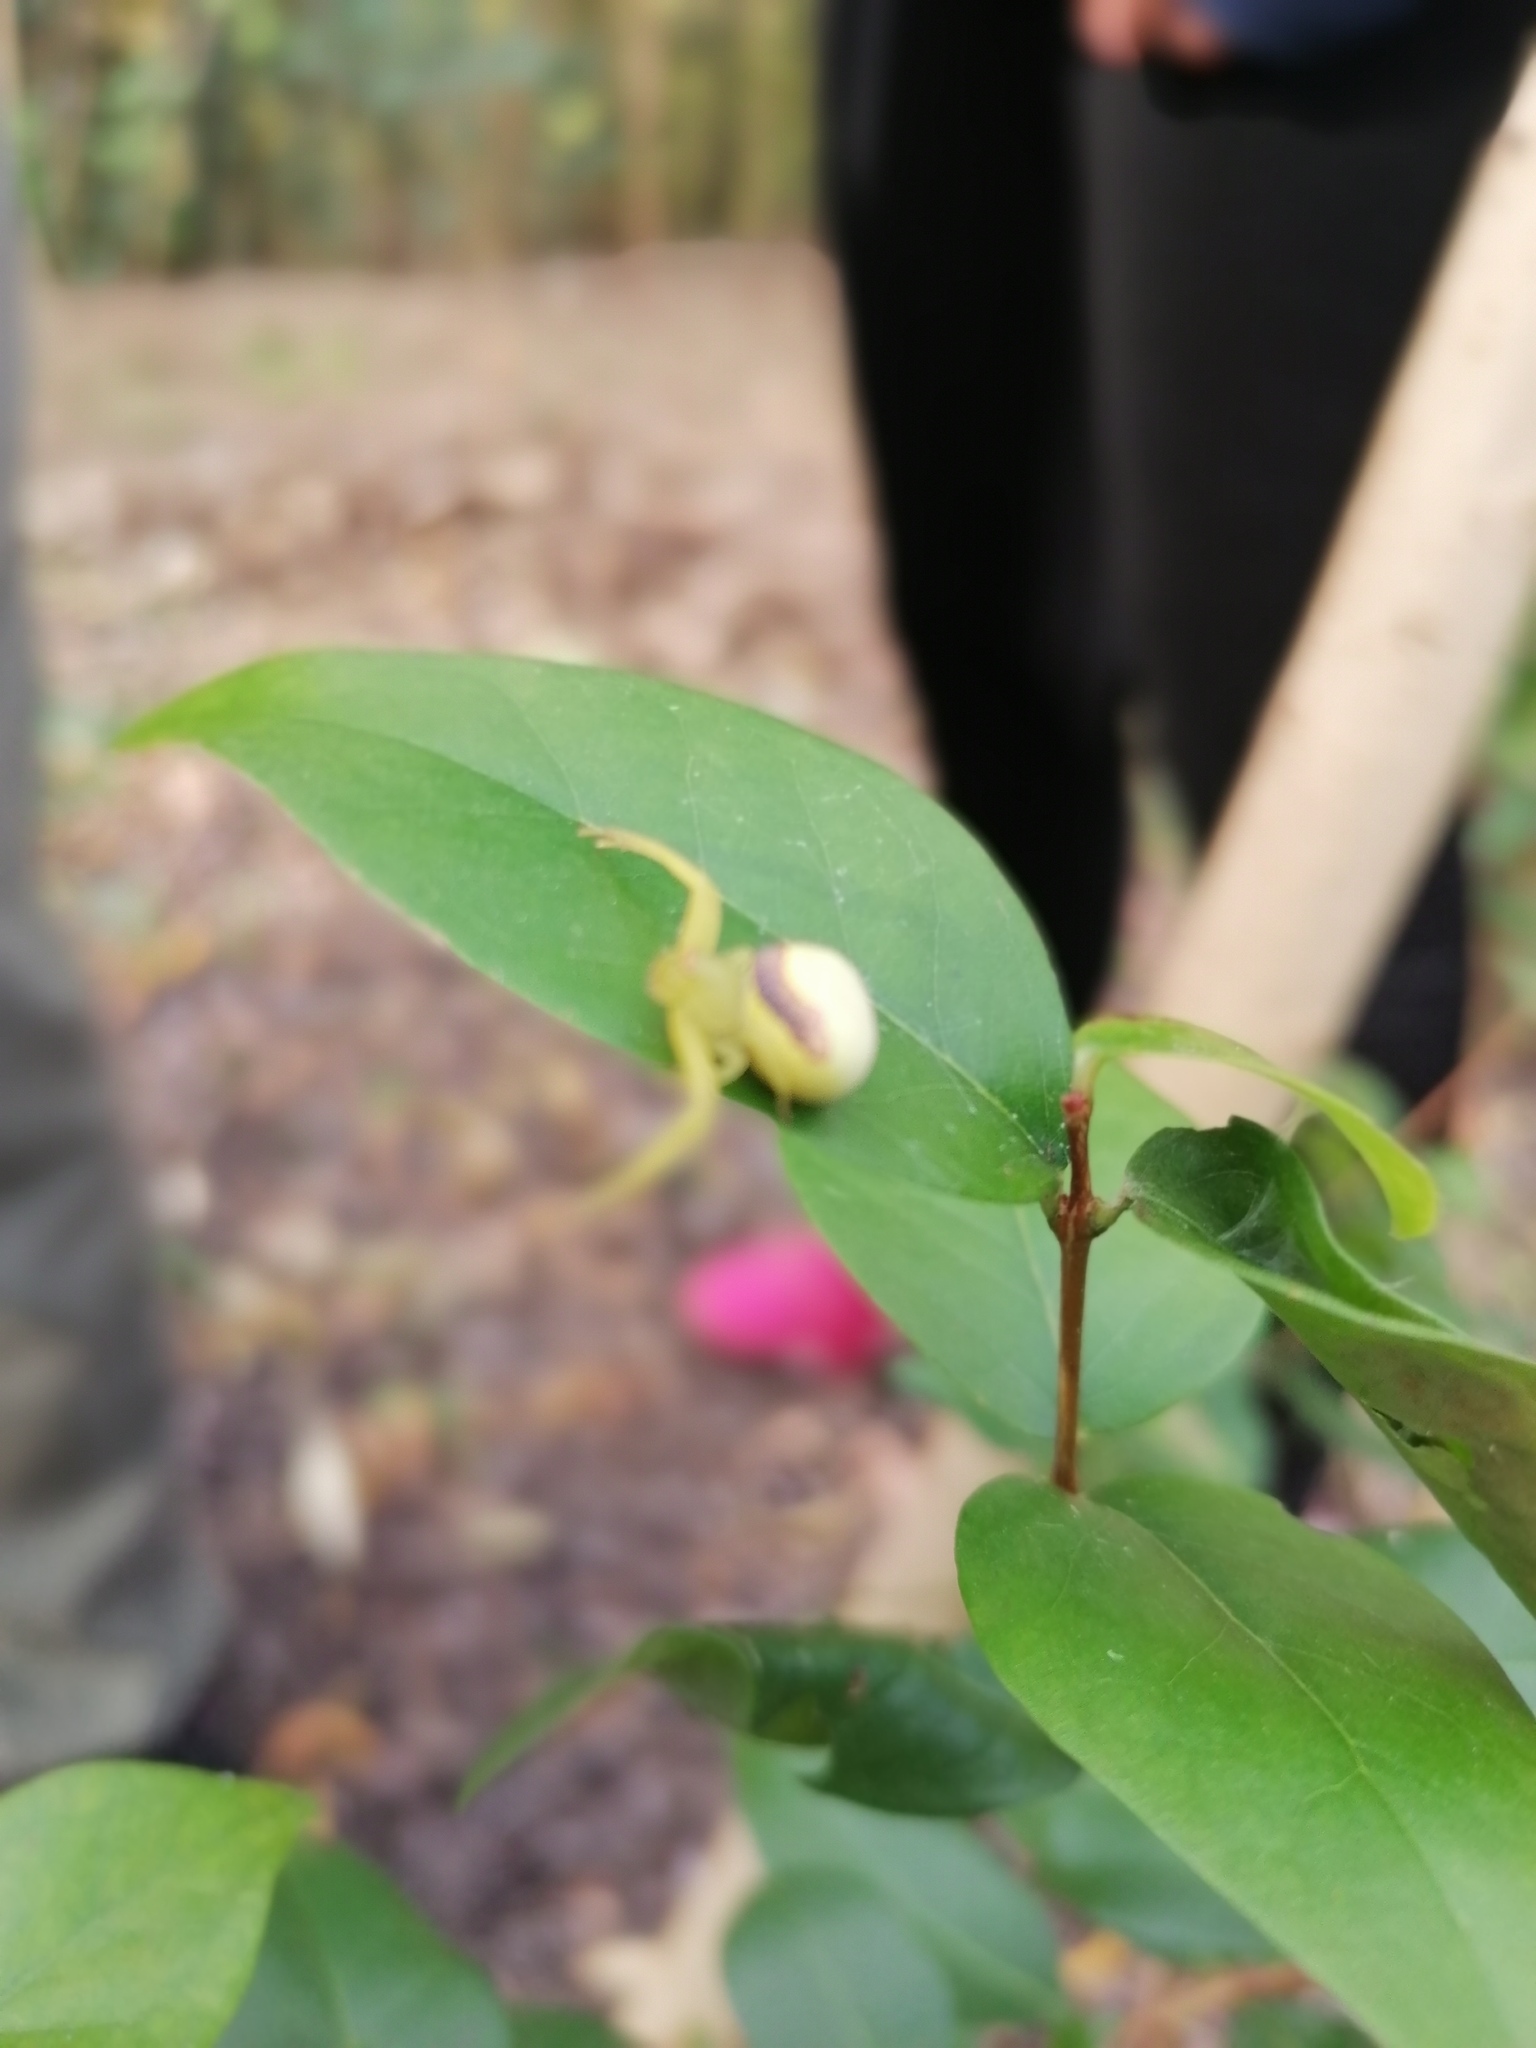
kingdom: Animalia
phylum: Arthropoda
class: Arachnida
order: Araneae
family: Thomisidae
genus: Misumenops
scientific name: Misumenops callinurus
